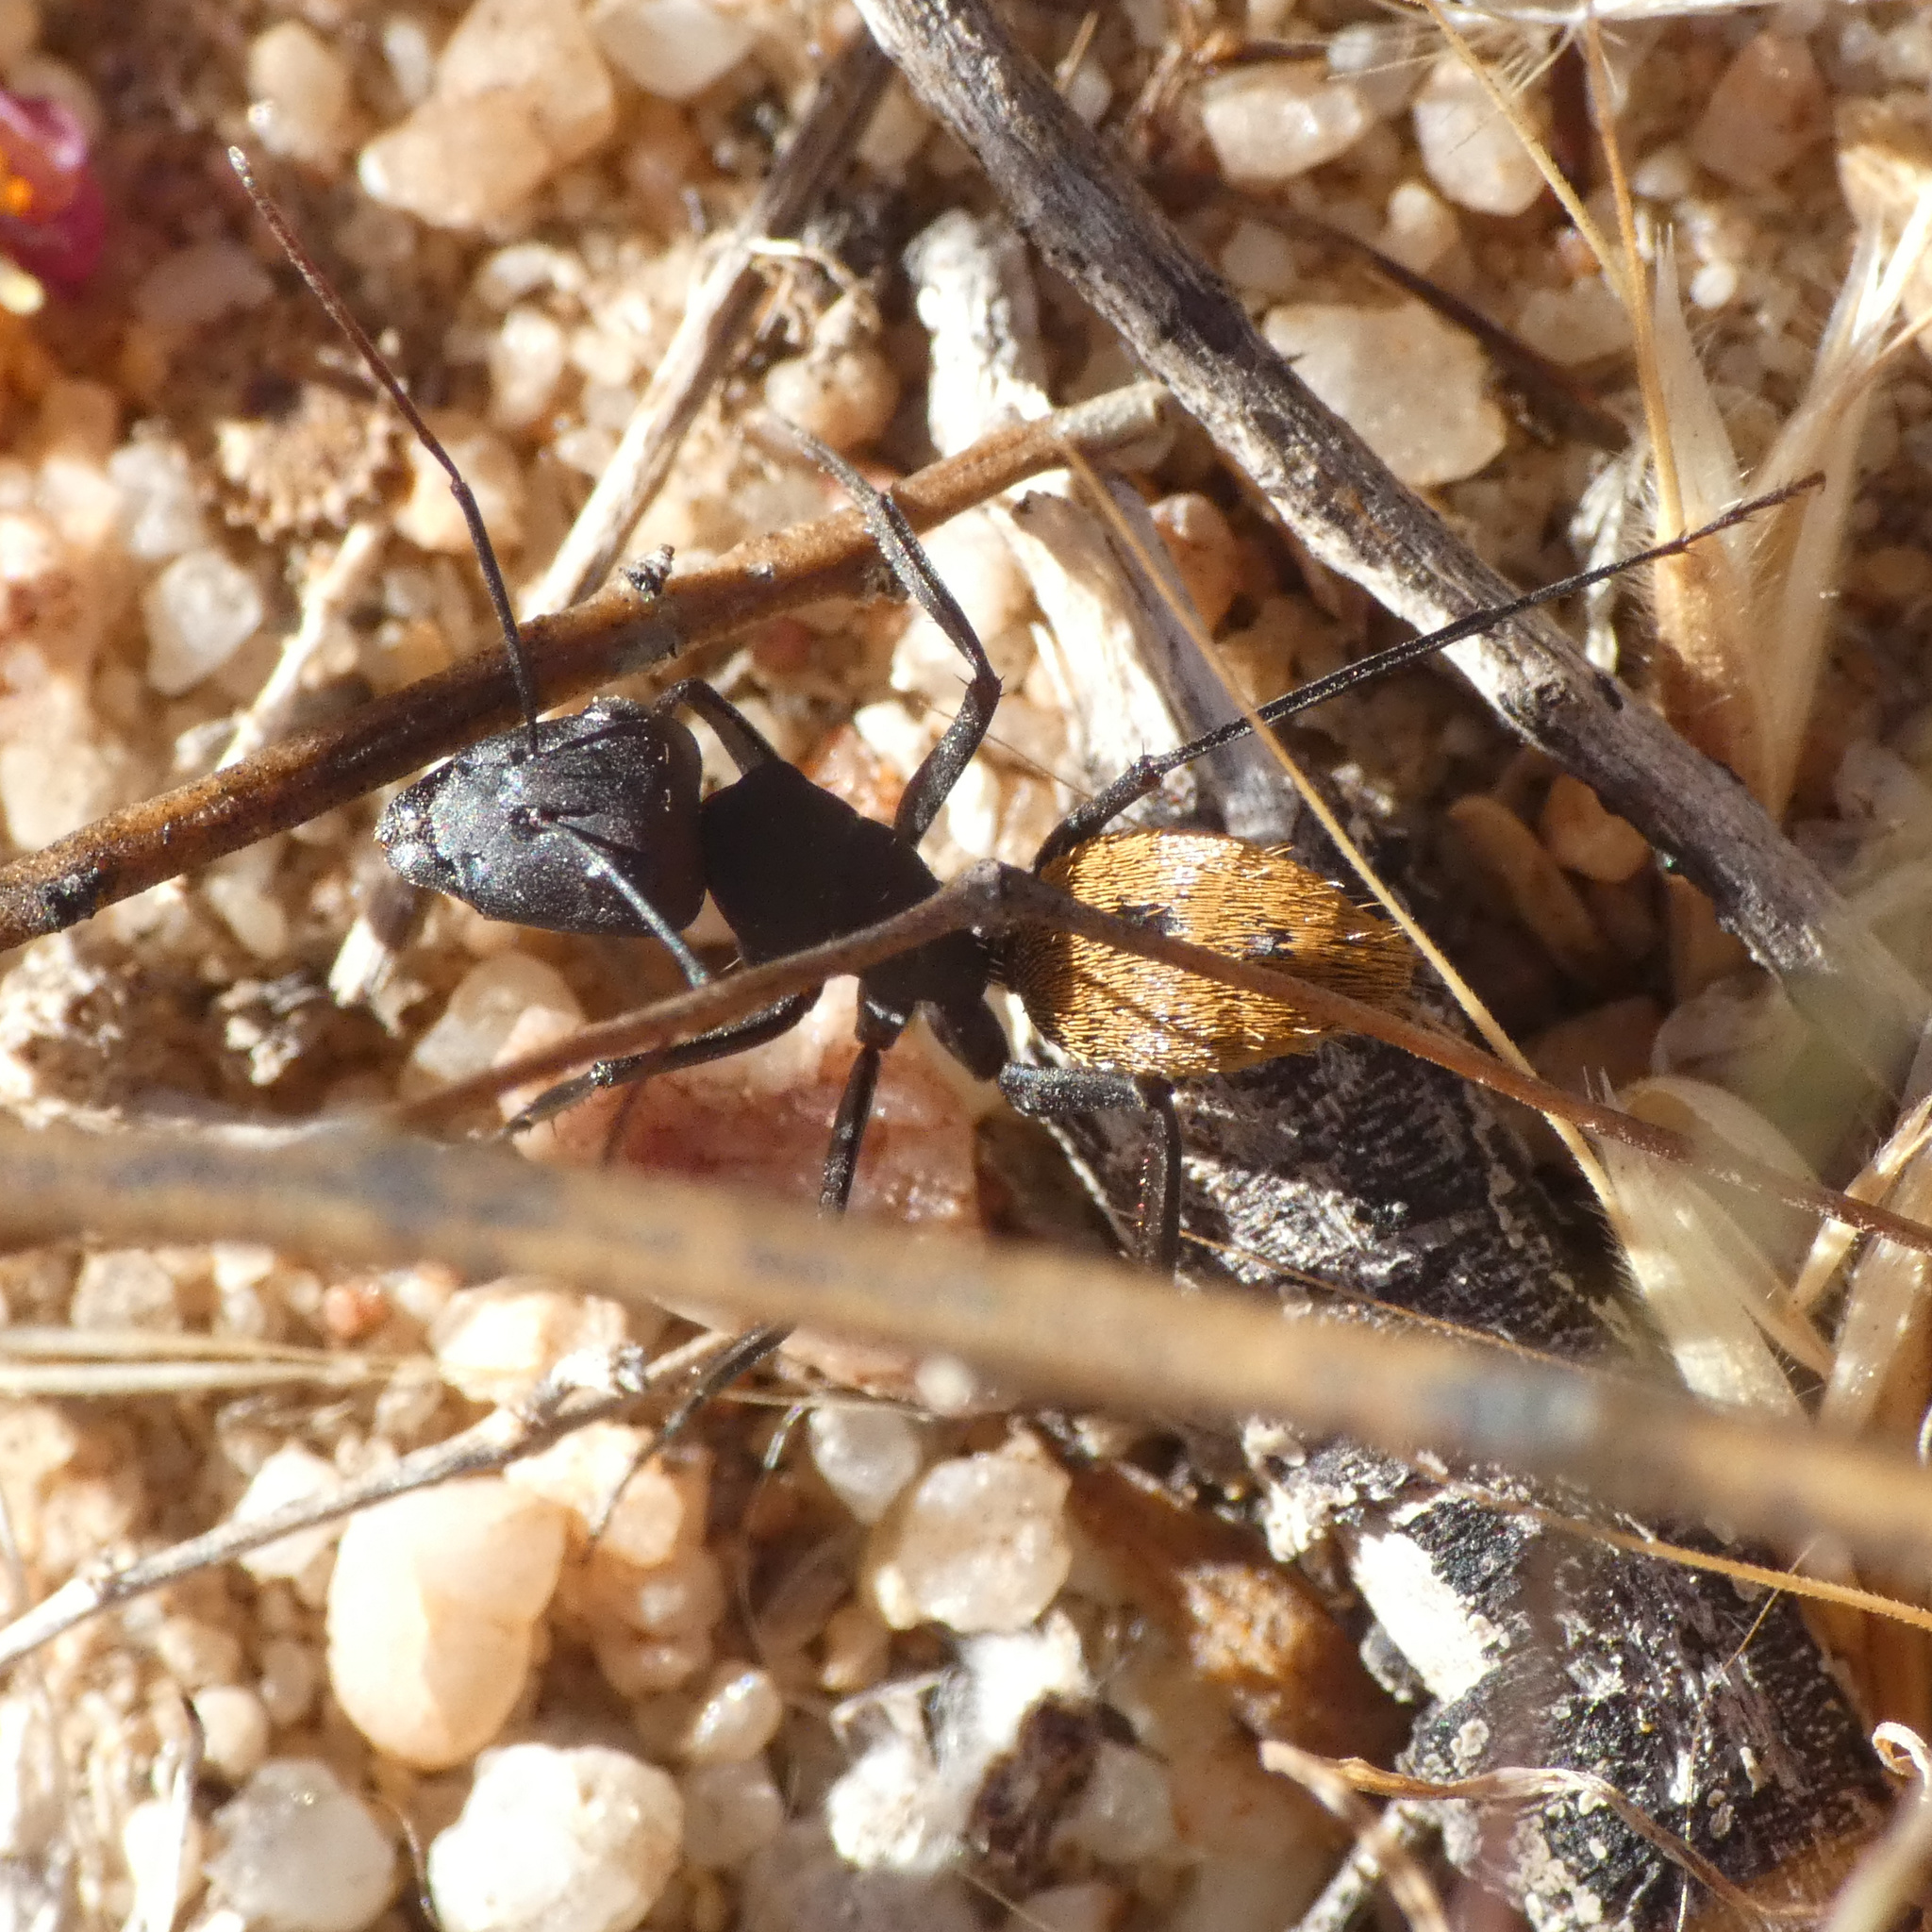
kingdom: Animalia
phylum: Arthropoda
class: Insecta
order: Hymenoptera
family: Formicidae
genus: Camponotus
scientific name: Camponotus fulvopilosus
